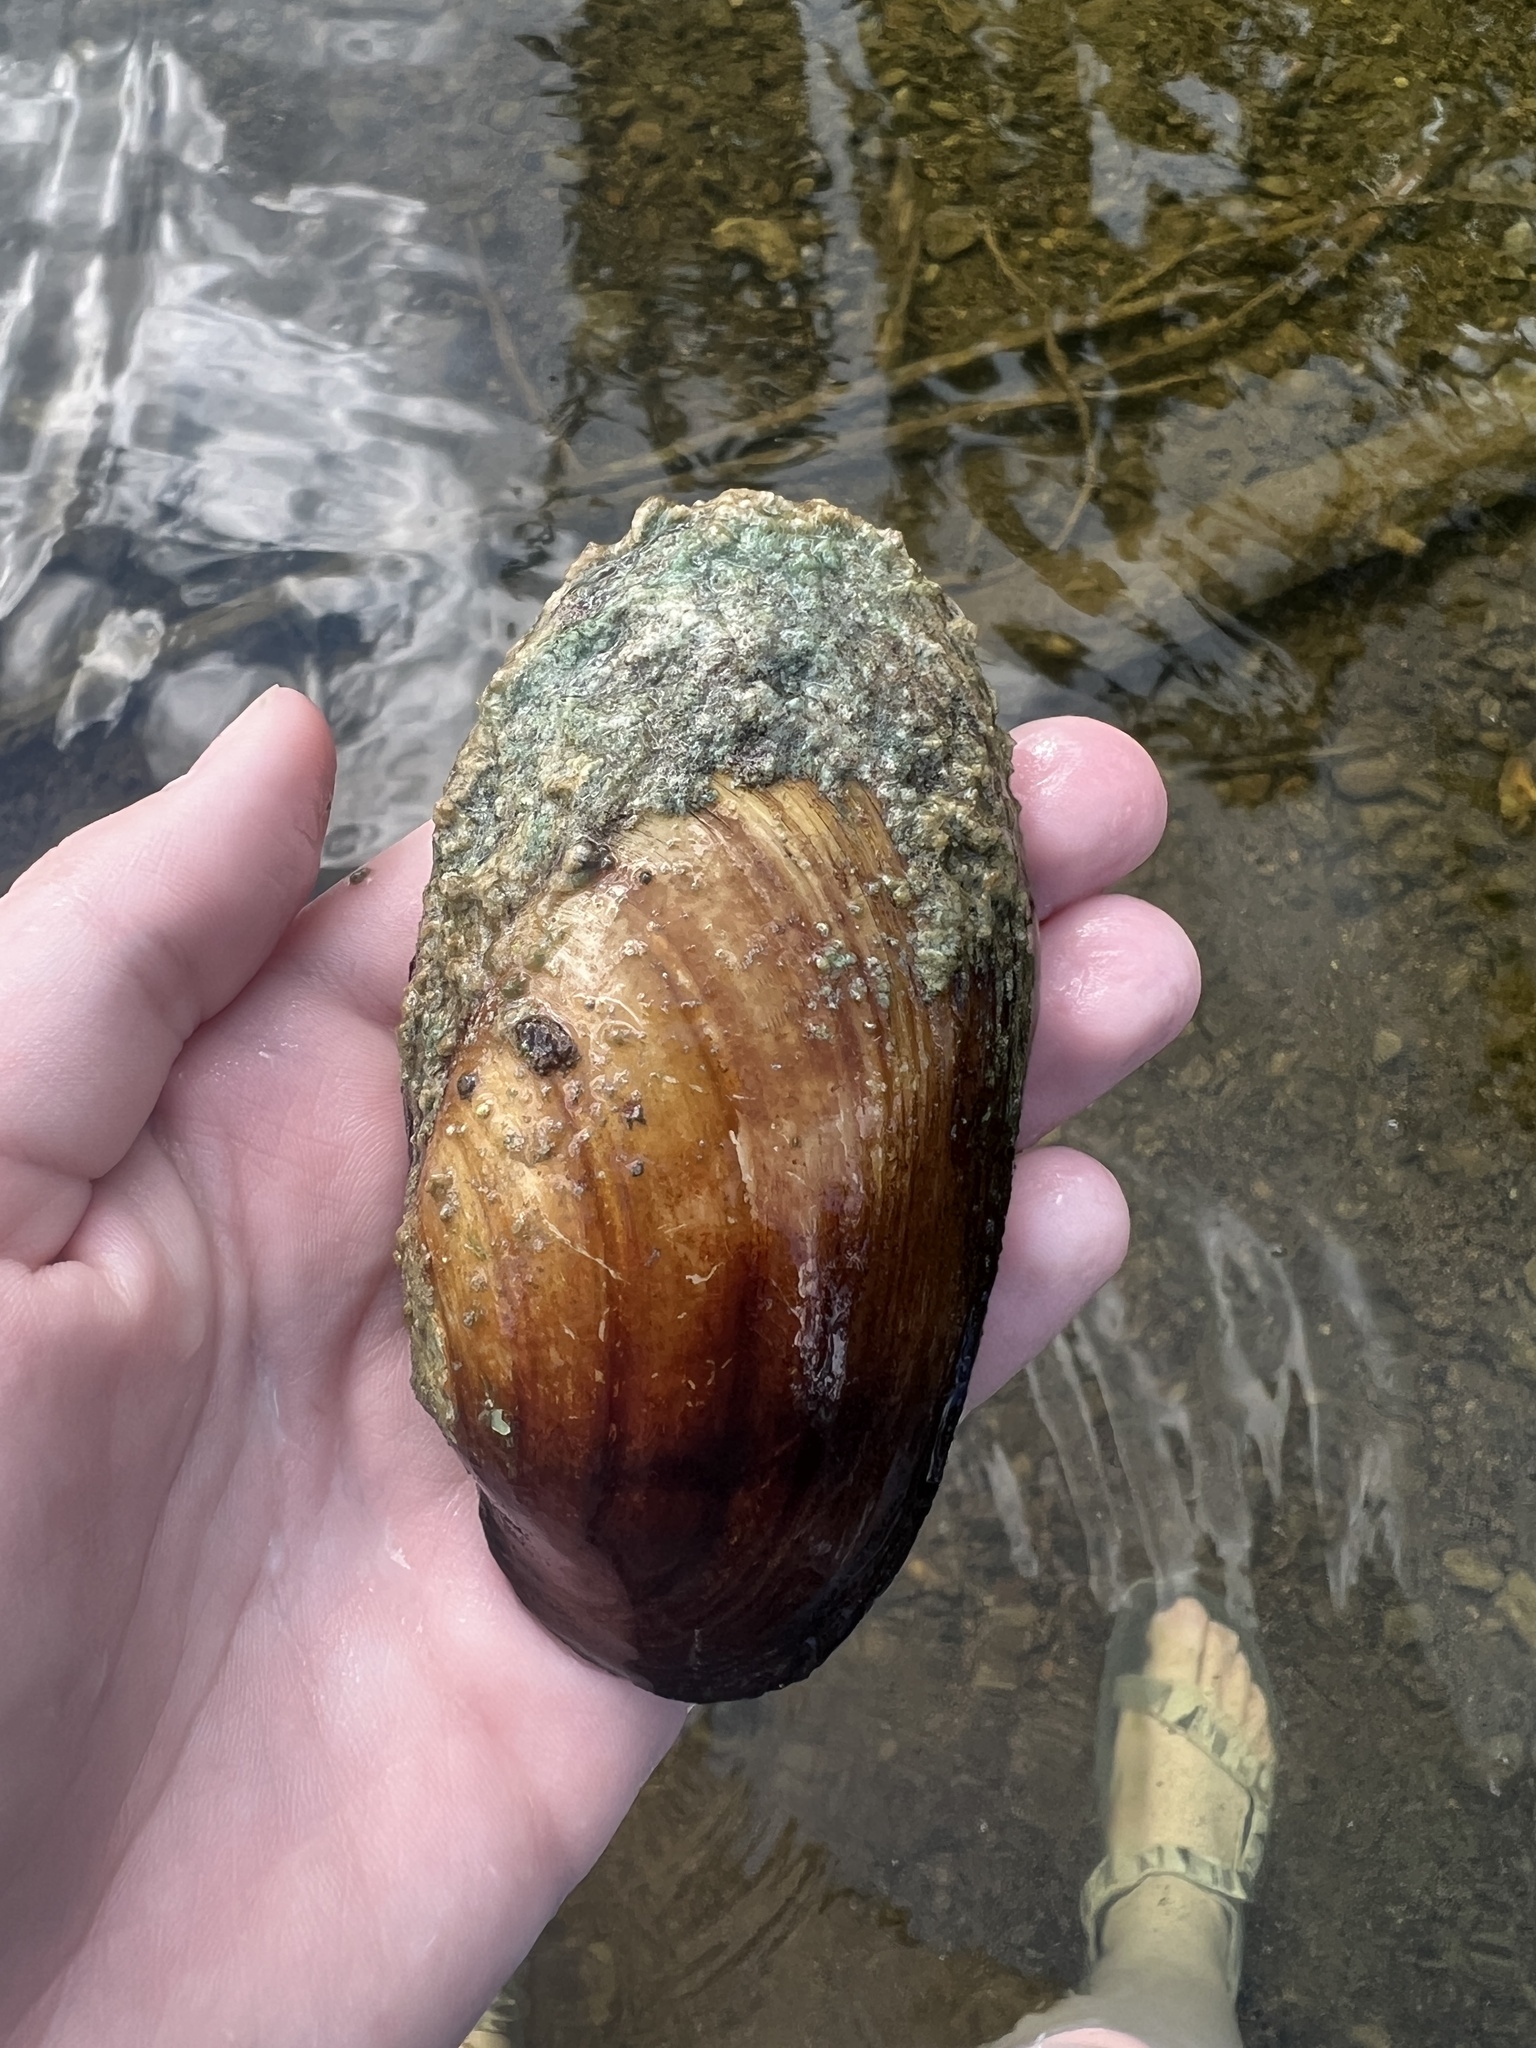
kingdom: Animalia
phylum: Mollusca
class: Bivalvia
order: Unionida
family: Unionidae
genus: Lampsilis
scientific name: Lampsilis siliquoidea
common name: Fatmucket
